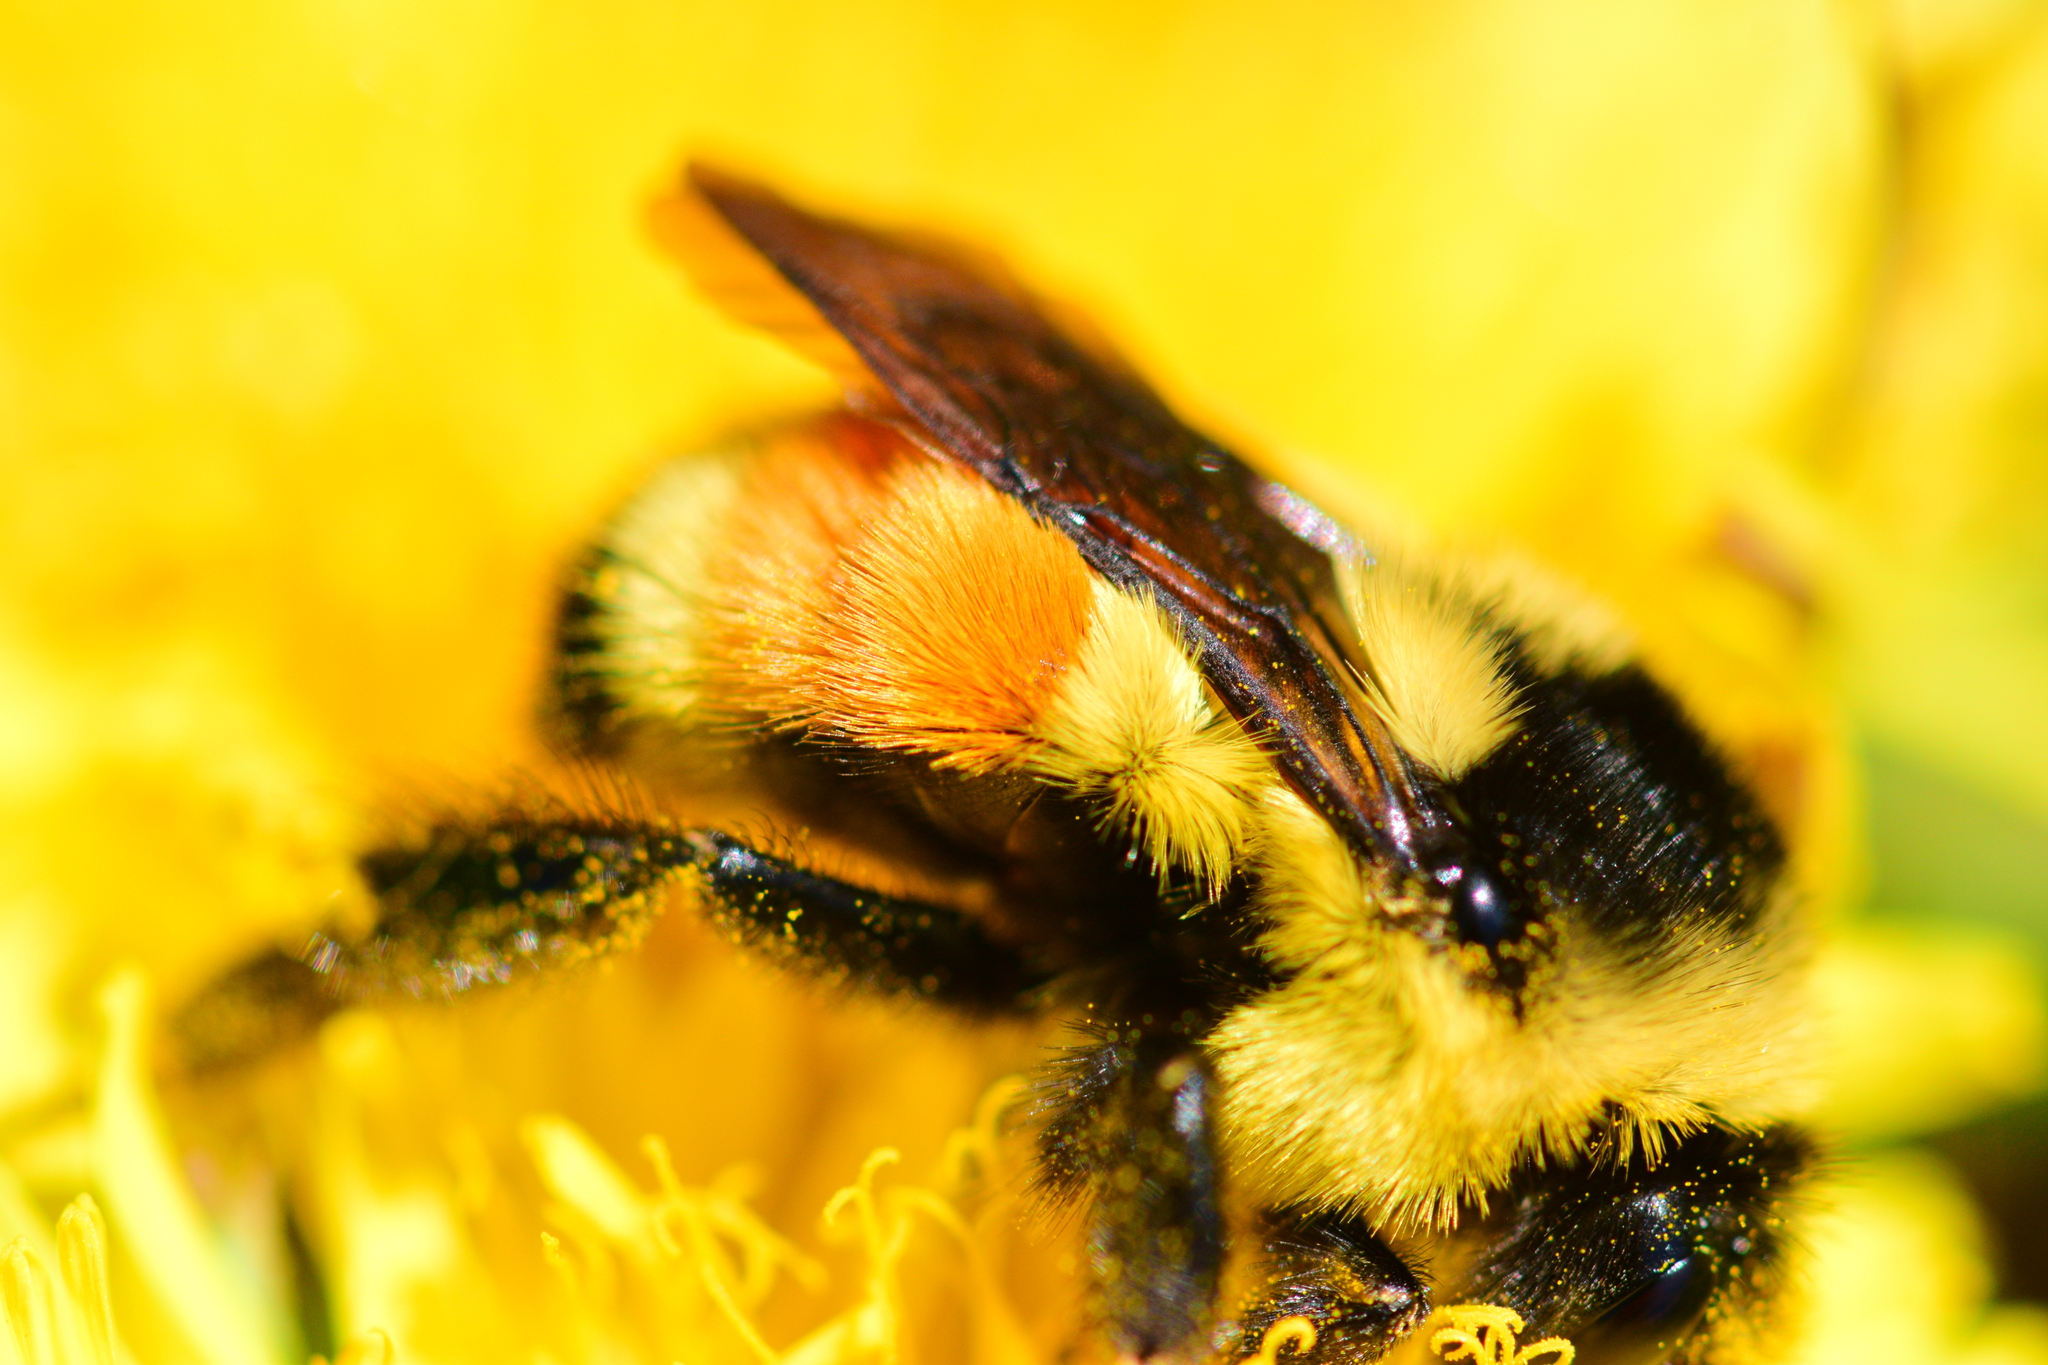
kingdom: Animalia
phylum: Arthropoda
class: Insecta
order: Hymenoptera
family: Apidae
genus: Bombus
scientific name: Bombus ternarius
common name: Tri-colored bumble bee
